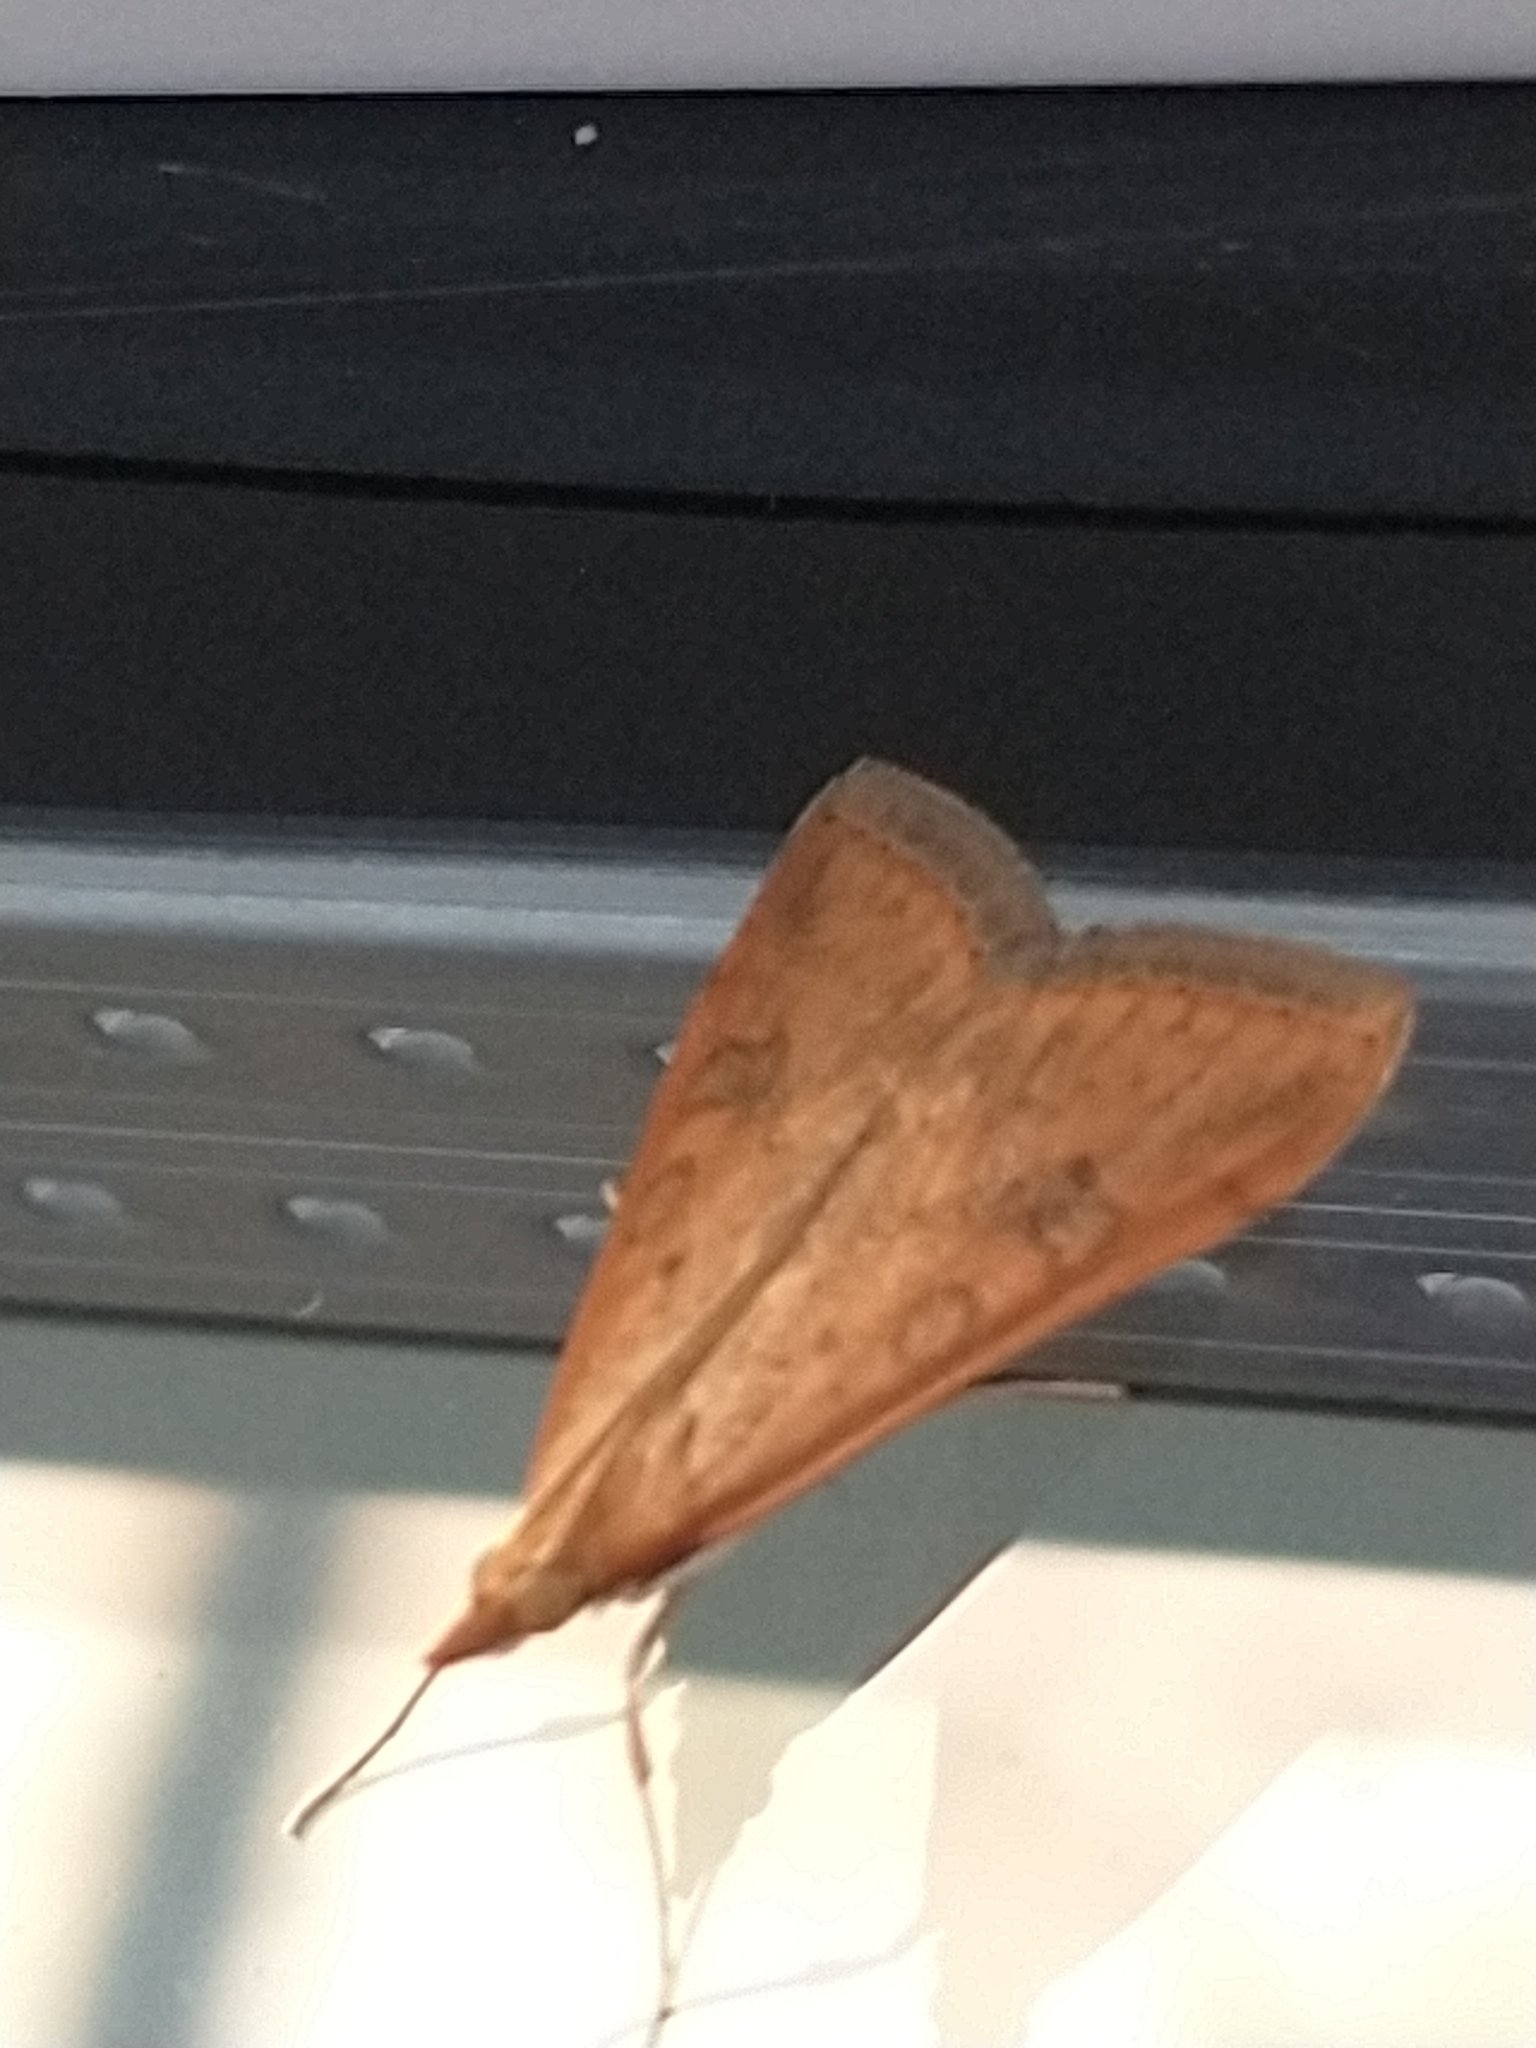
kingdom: Animalia
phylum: Arthropoda
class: Insecta
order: Lepidoptera
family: Crambidae
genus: Udea
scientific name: Udea ferrugalis
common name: Rusty dot
